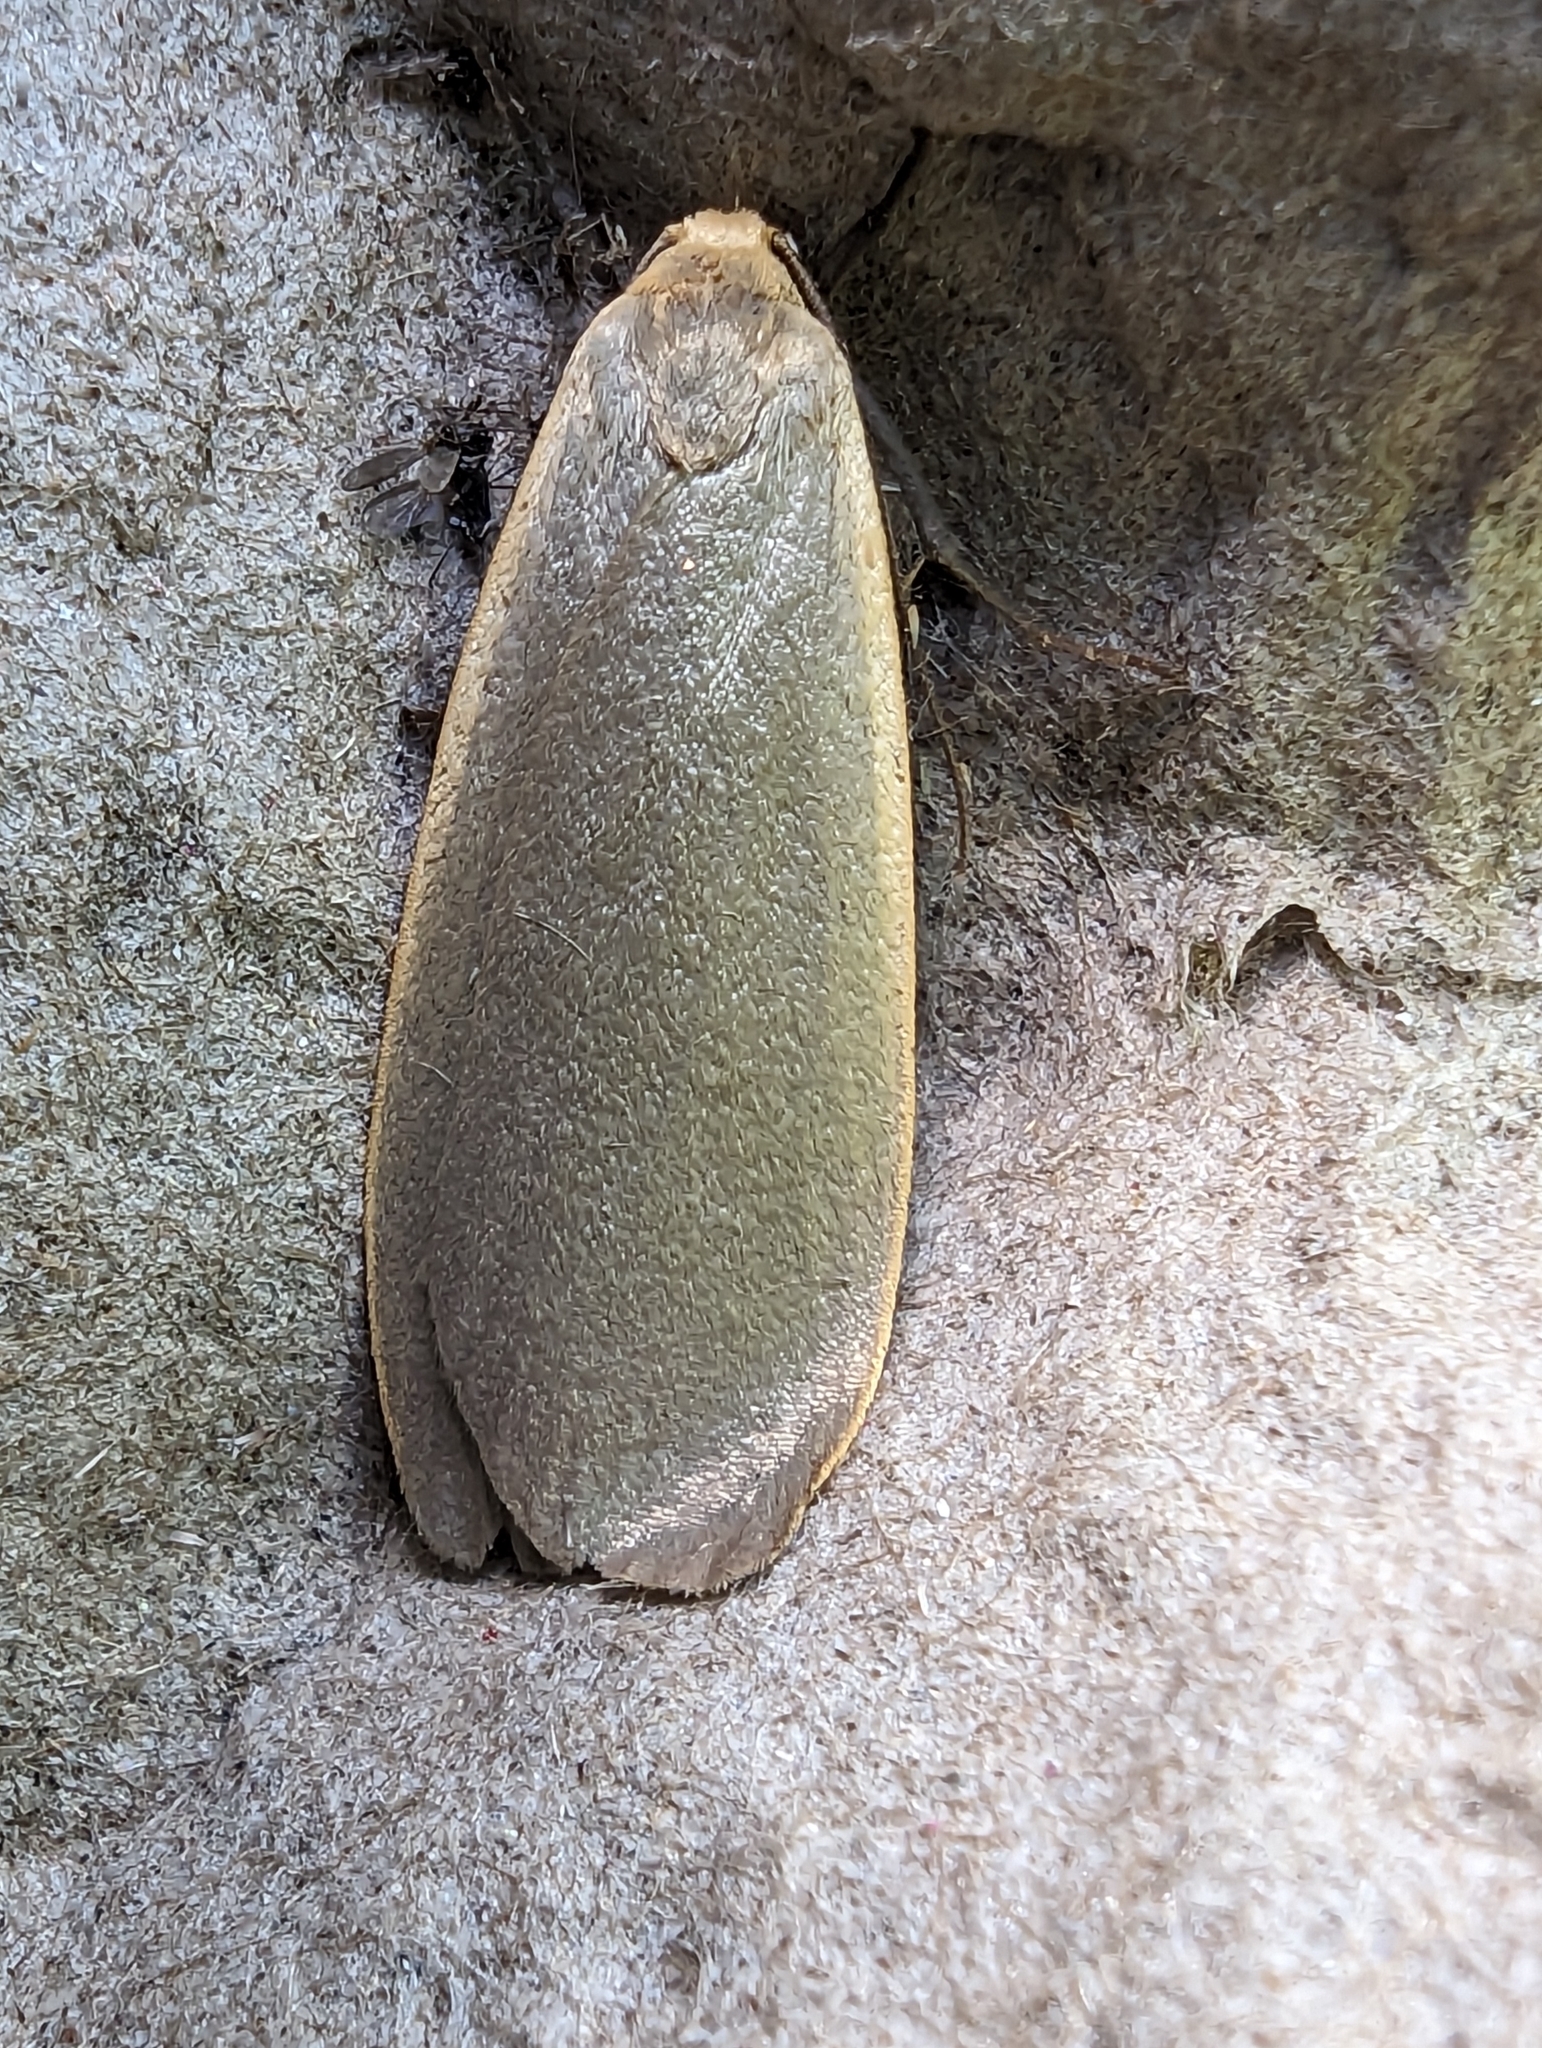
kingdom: Animalia
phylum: Arthropoda
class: Insecta
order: Lepidoptera
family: Erebidae
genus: Collita
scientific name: Collita griseola
